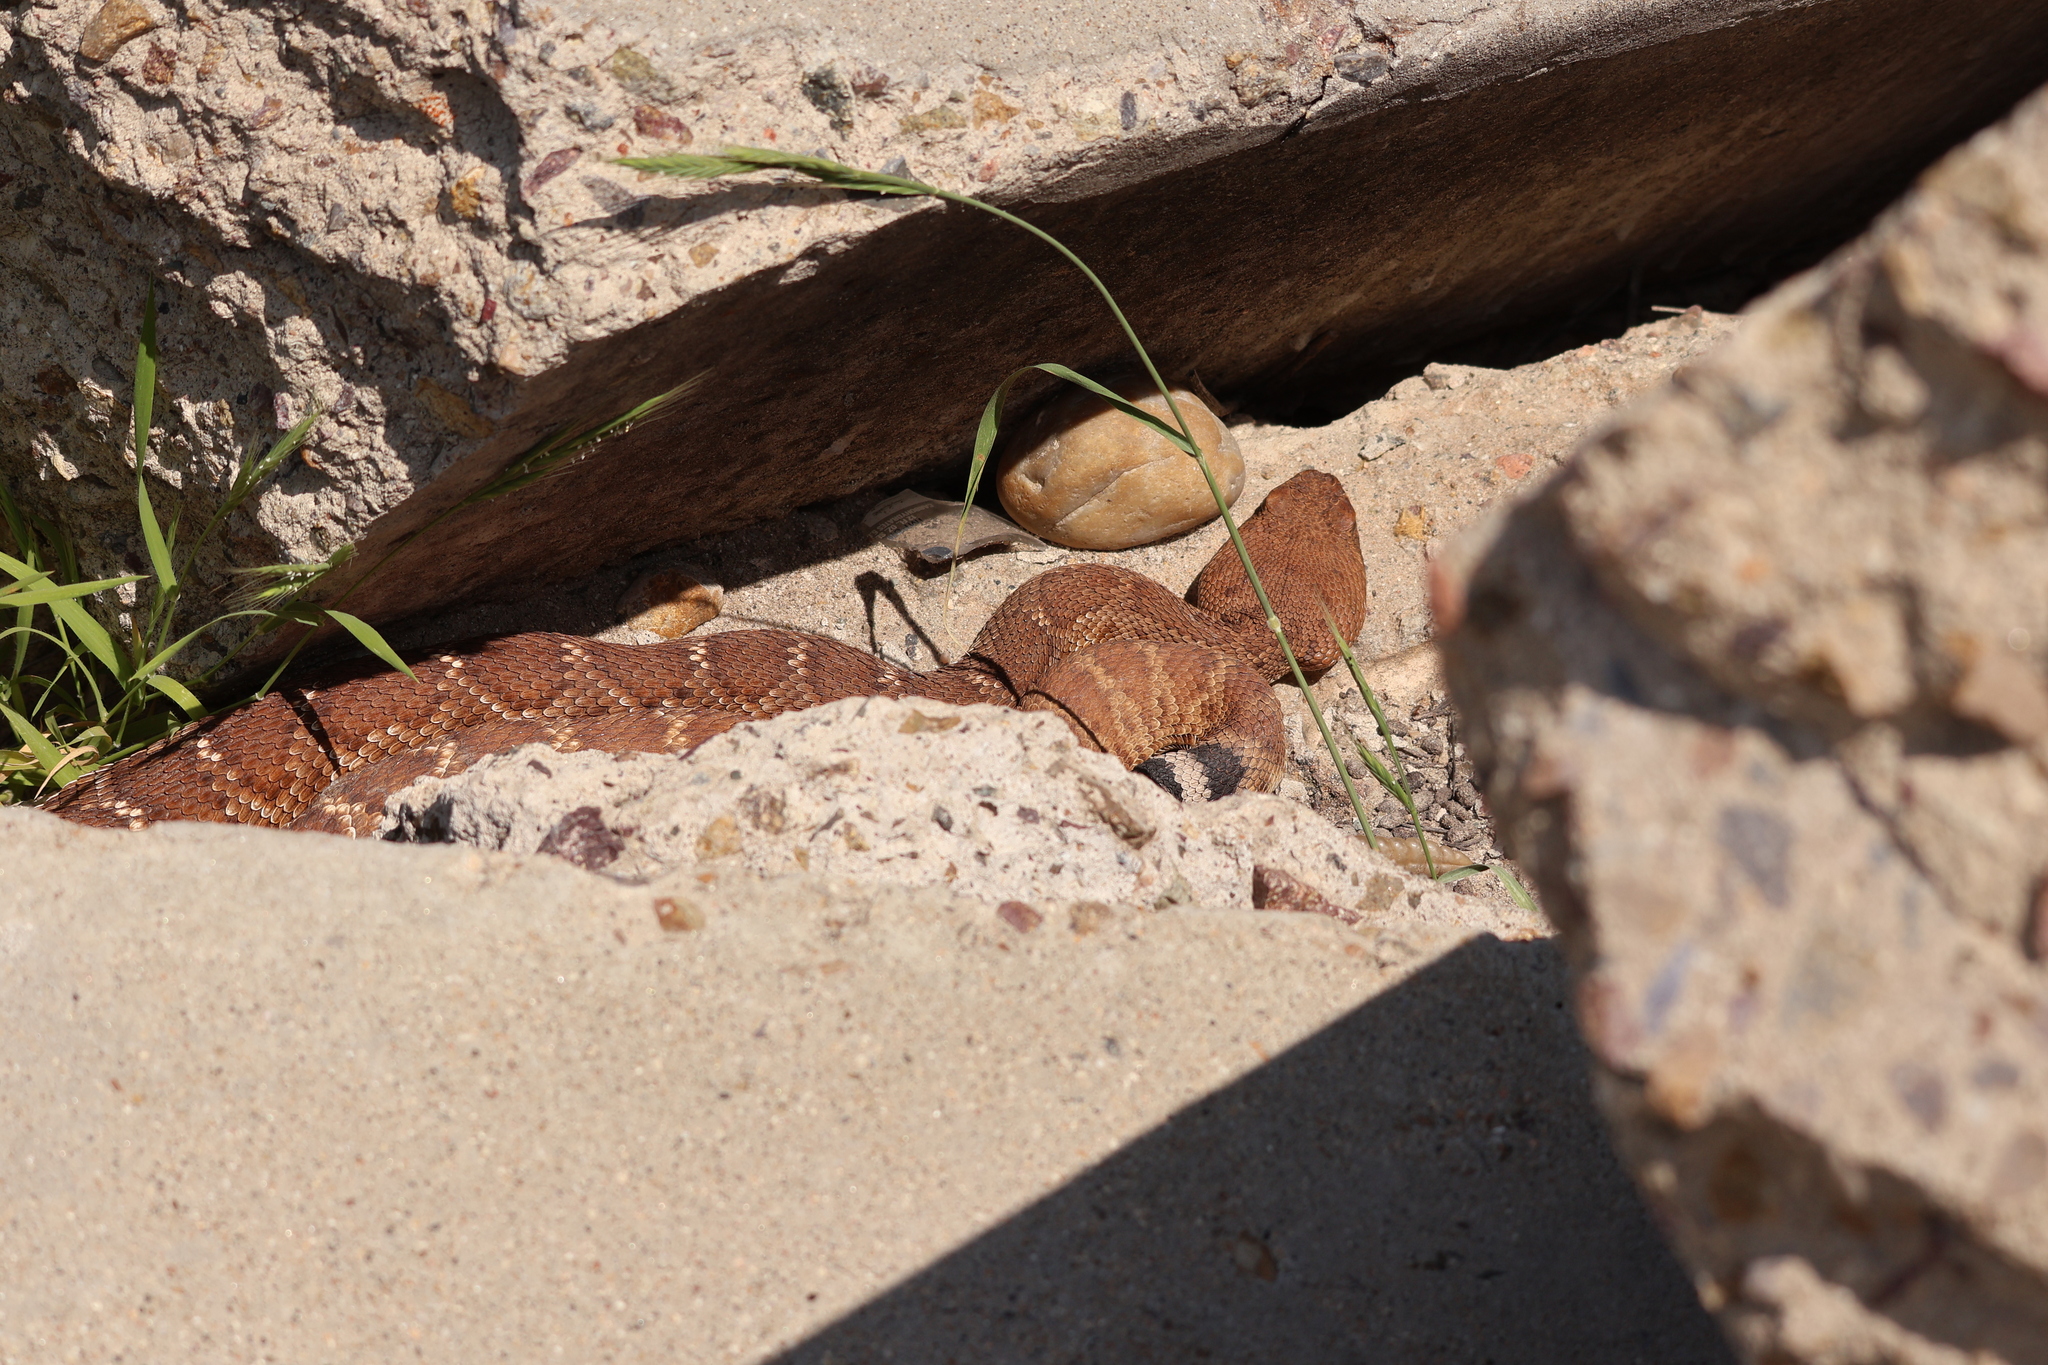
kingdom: Animalia
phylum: Chordata
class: Squamata
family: Viperidae
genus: Crotalus
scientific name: Crotalus ruber
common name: Red diamond rattlesnake
